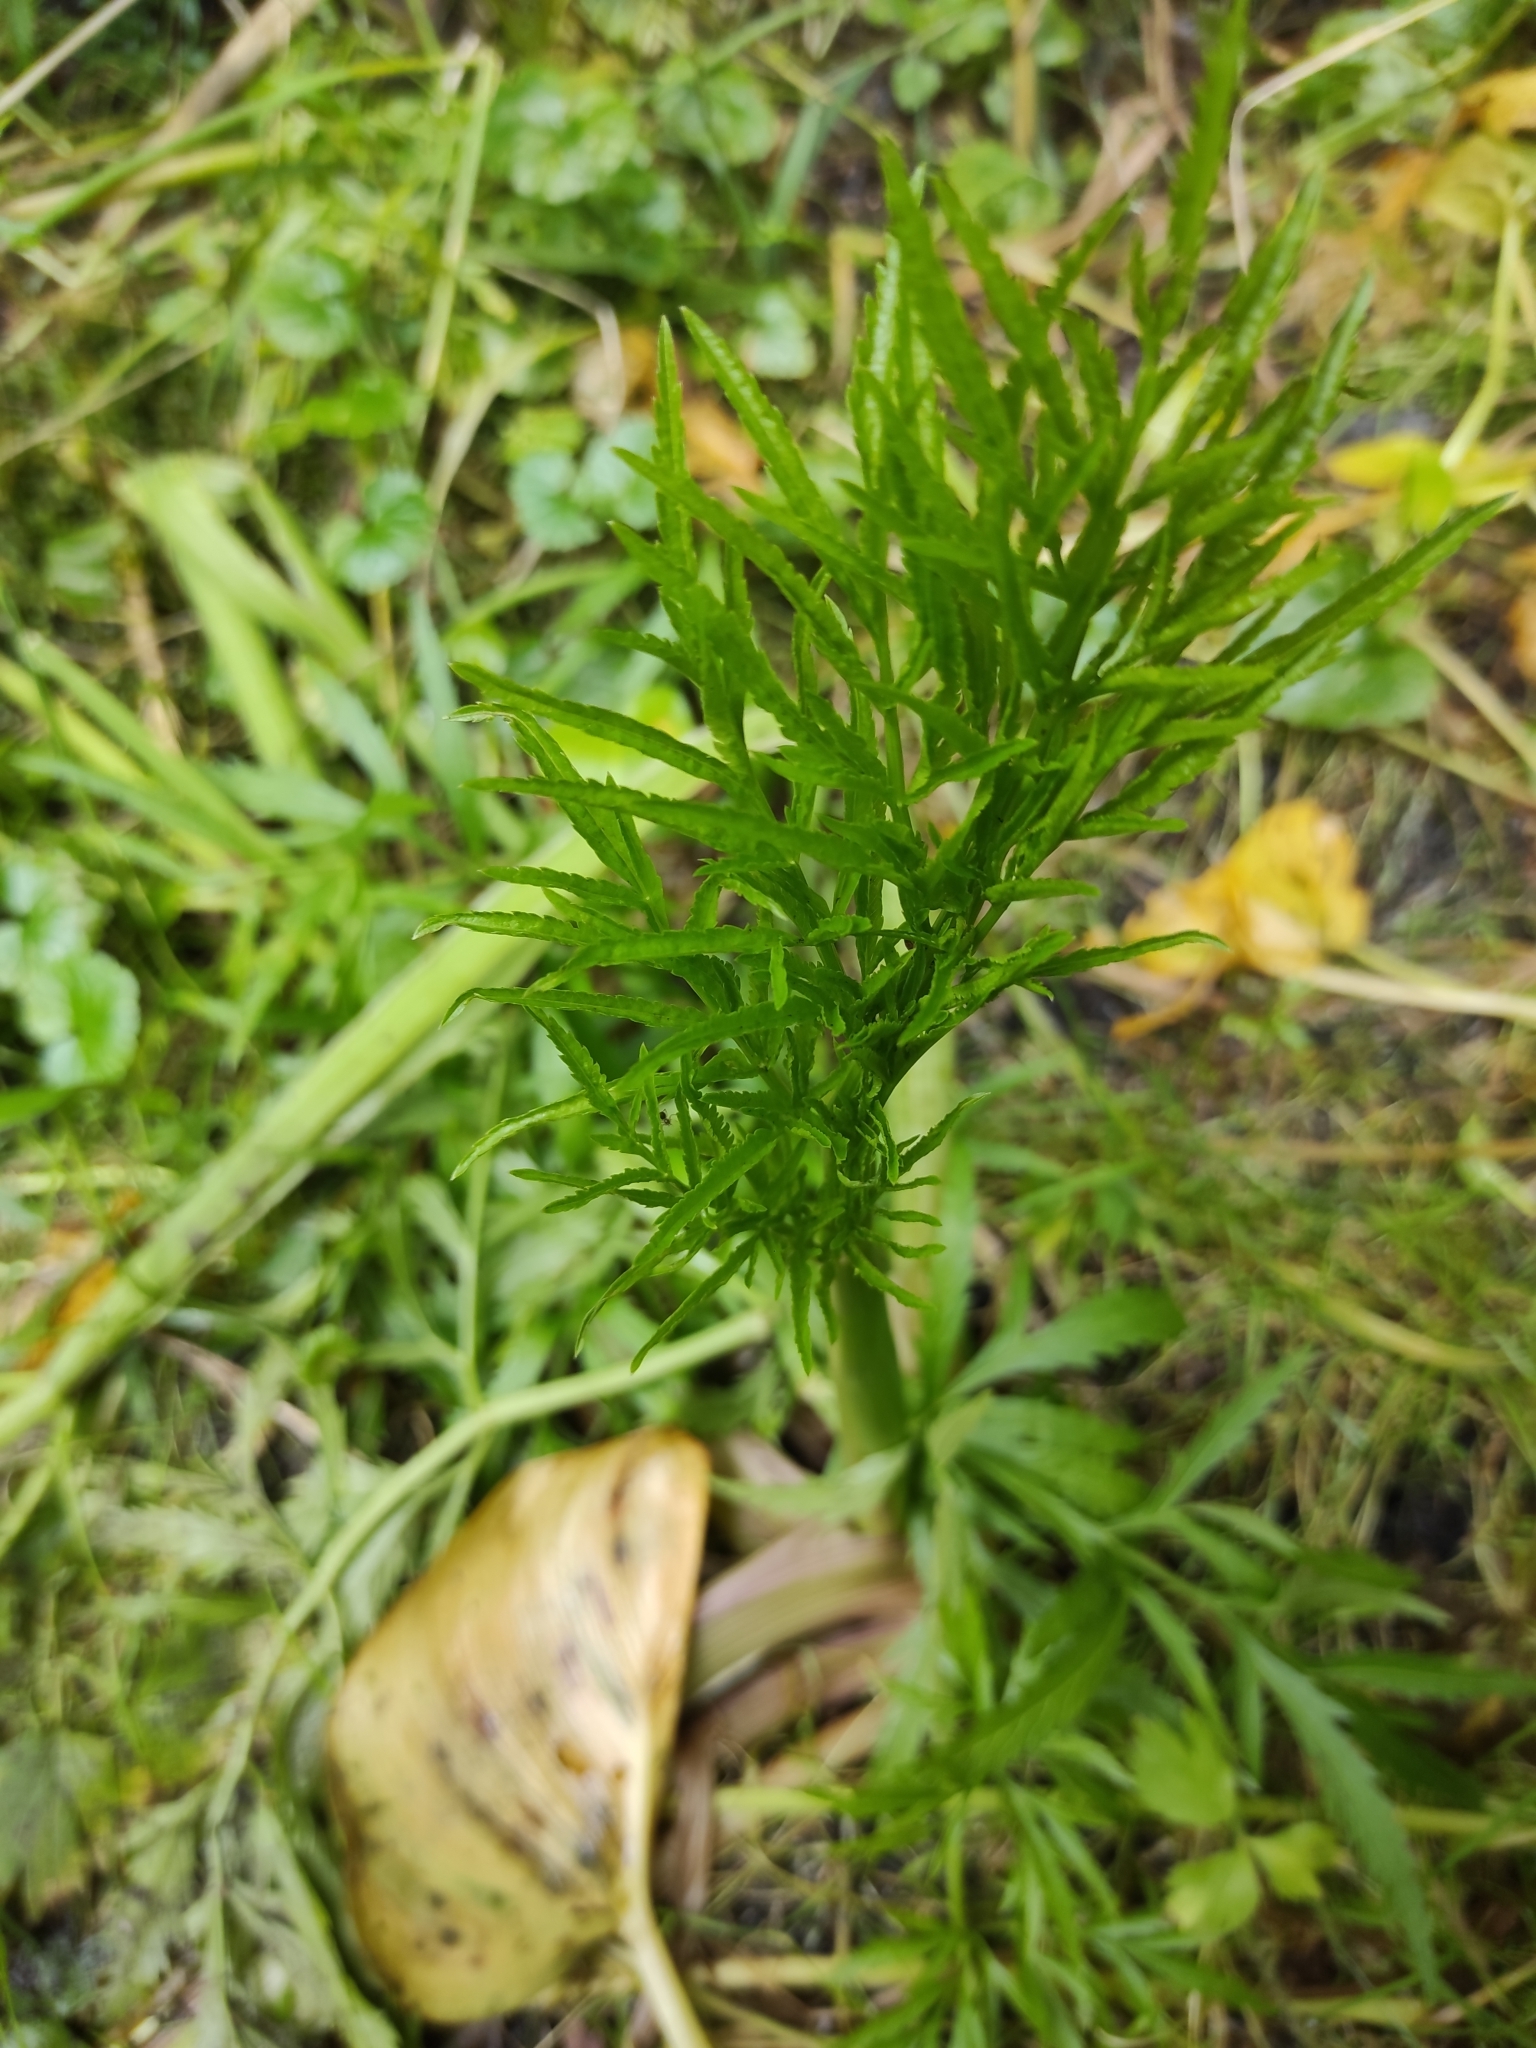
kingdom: Plantae
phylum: Tracheophyta
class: Magnoliopsida
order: Apiales
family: Apiaceae
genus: Cicuta
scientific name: Cicuta virosa
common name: Cowbane
